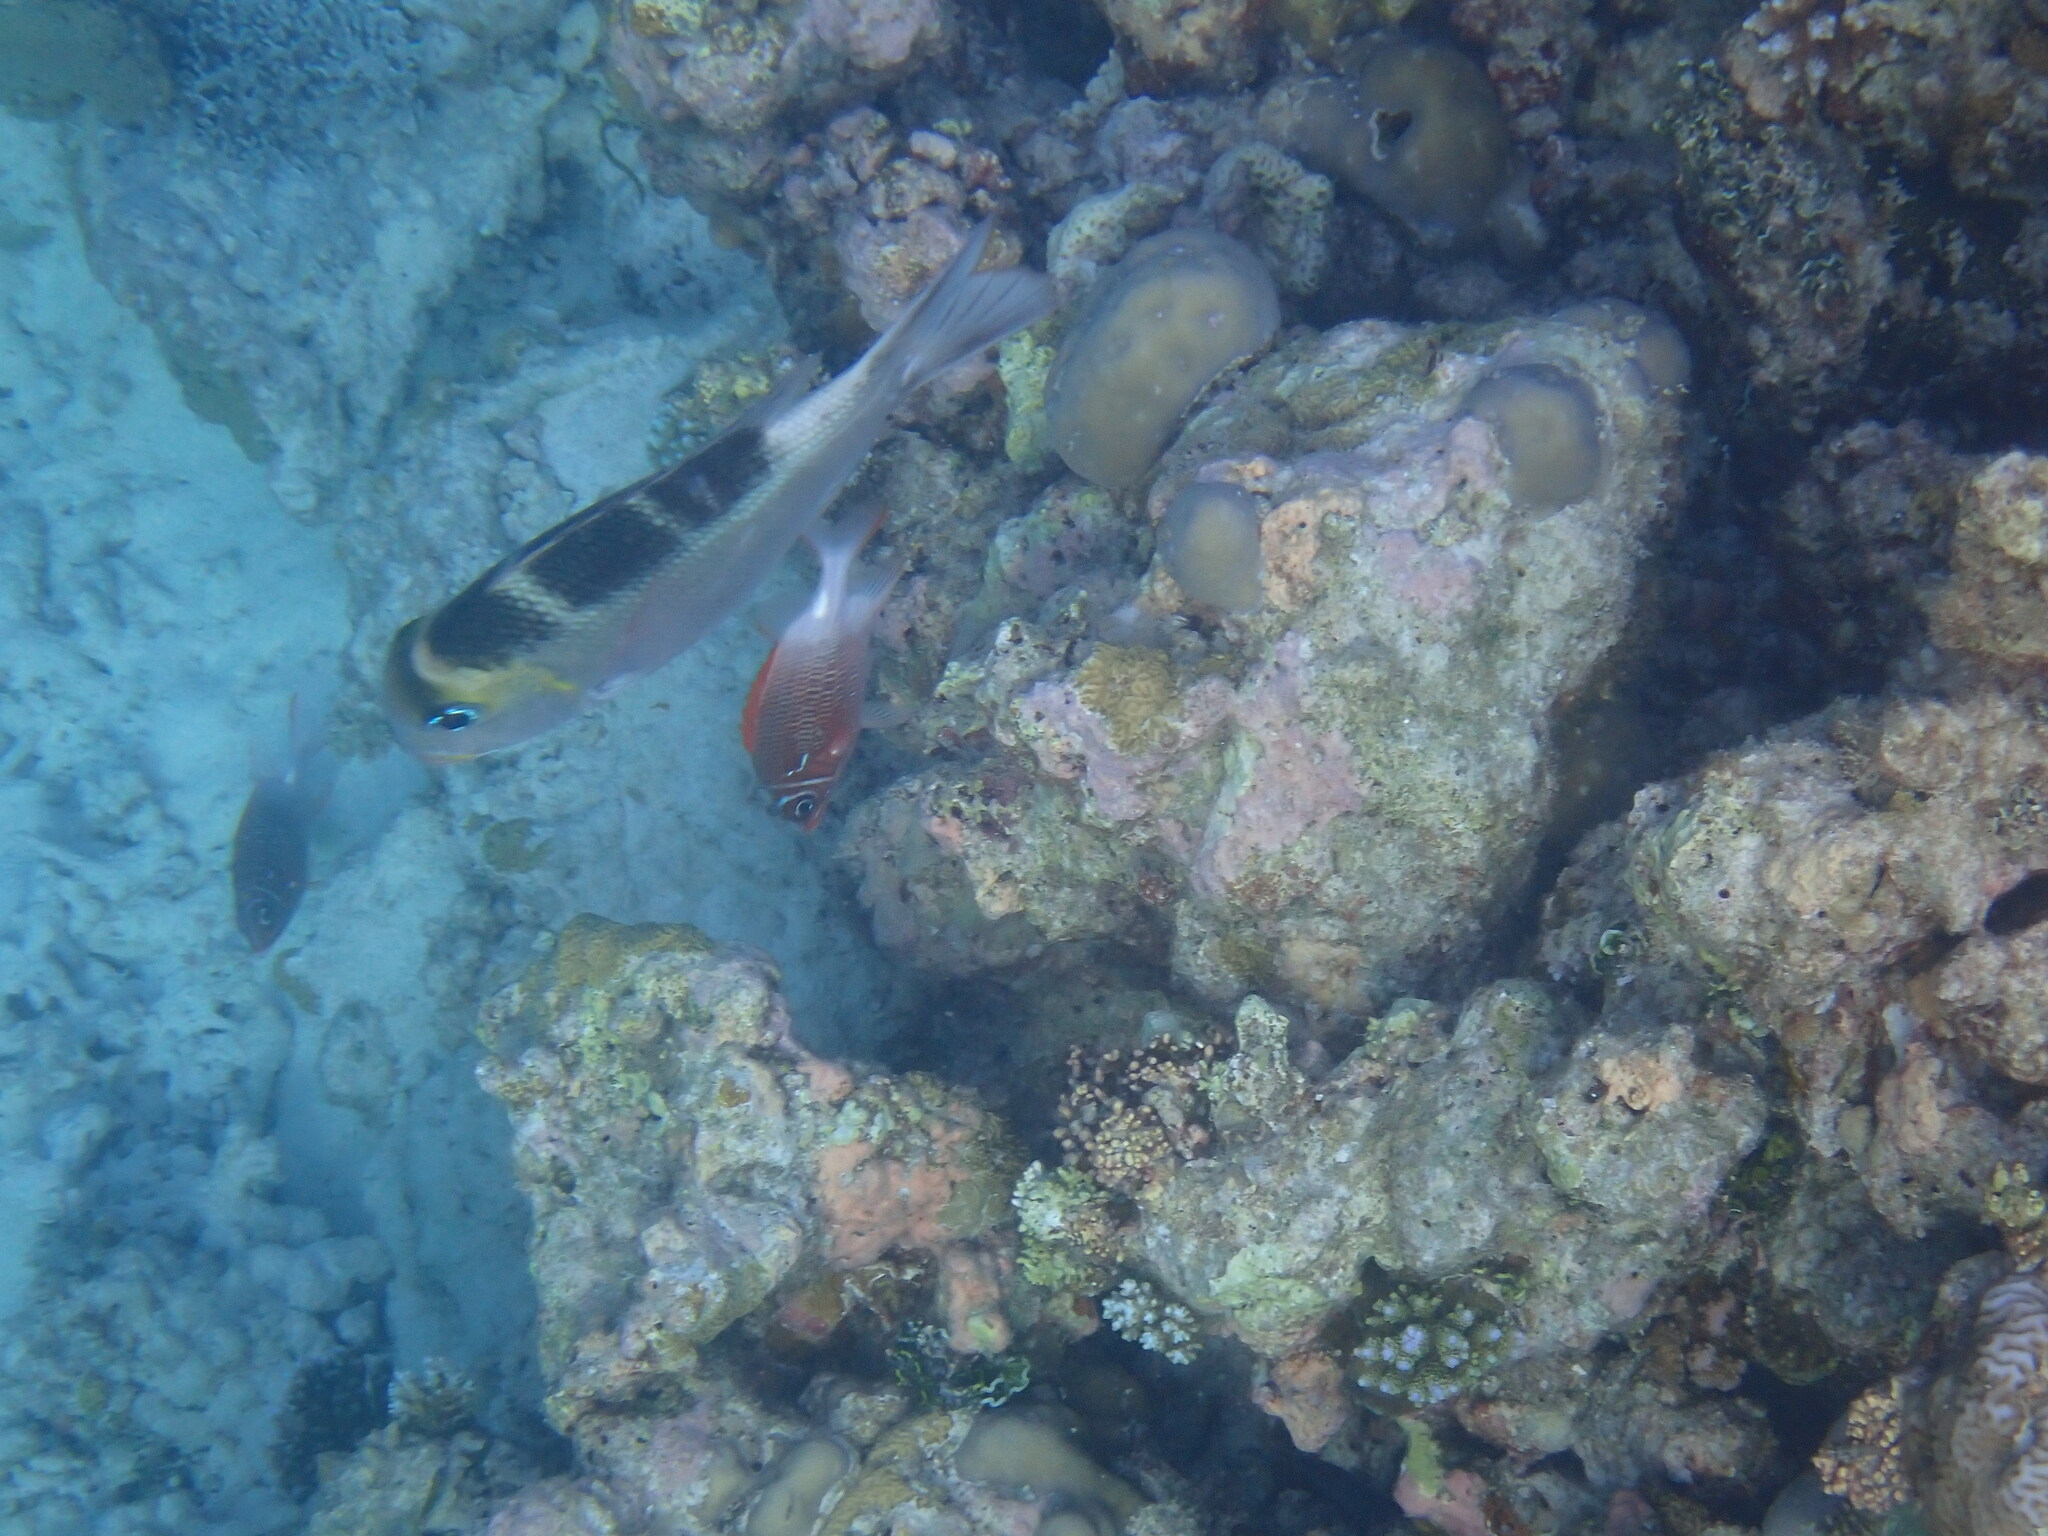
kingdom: Animalia
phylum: Chordata
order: Perciformes
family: Lethrinidae
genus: Monotaxis
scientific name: Monotaxis grandoculis
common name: Bigeye emperor
